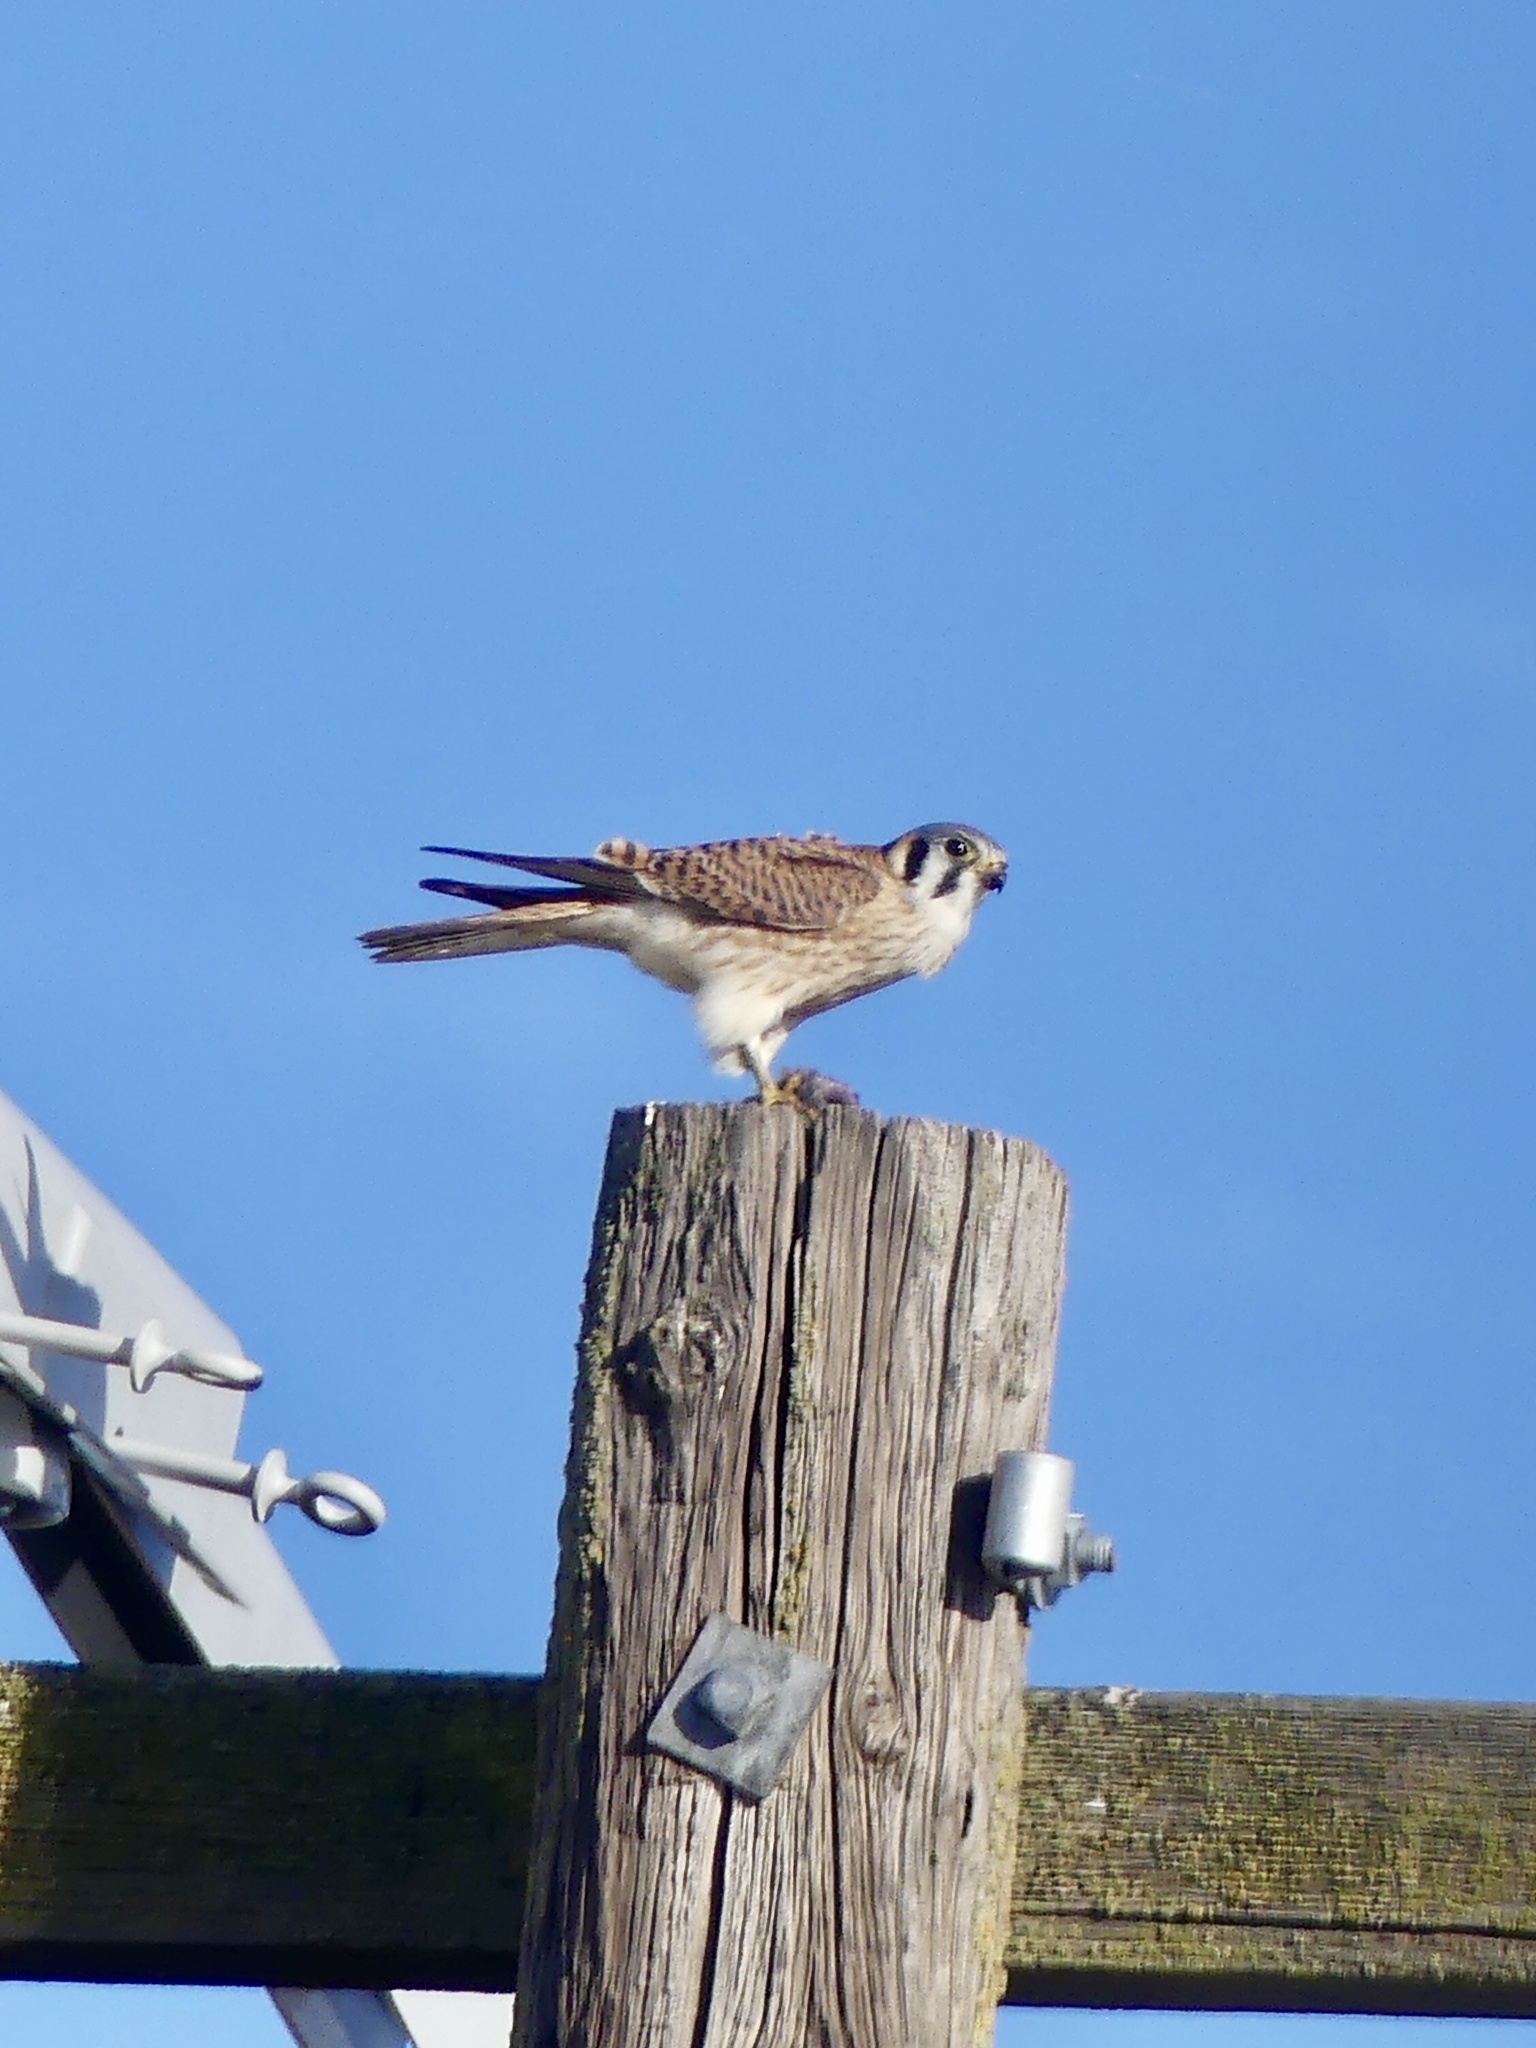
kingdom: Animalia
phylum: Chordata
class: Aves
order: Falconiformes
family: Falconidae
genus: Falco
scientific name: Falco sparverius
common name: American kestrel
